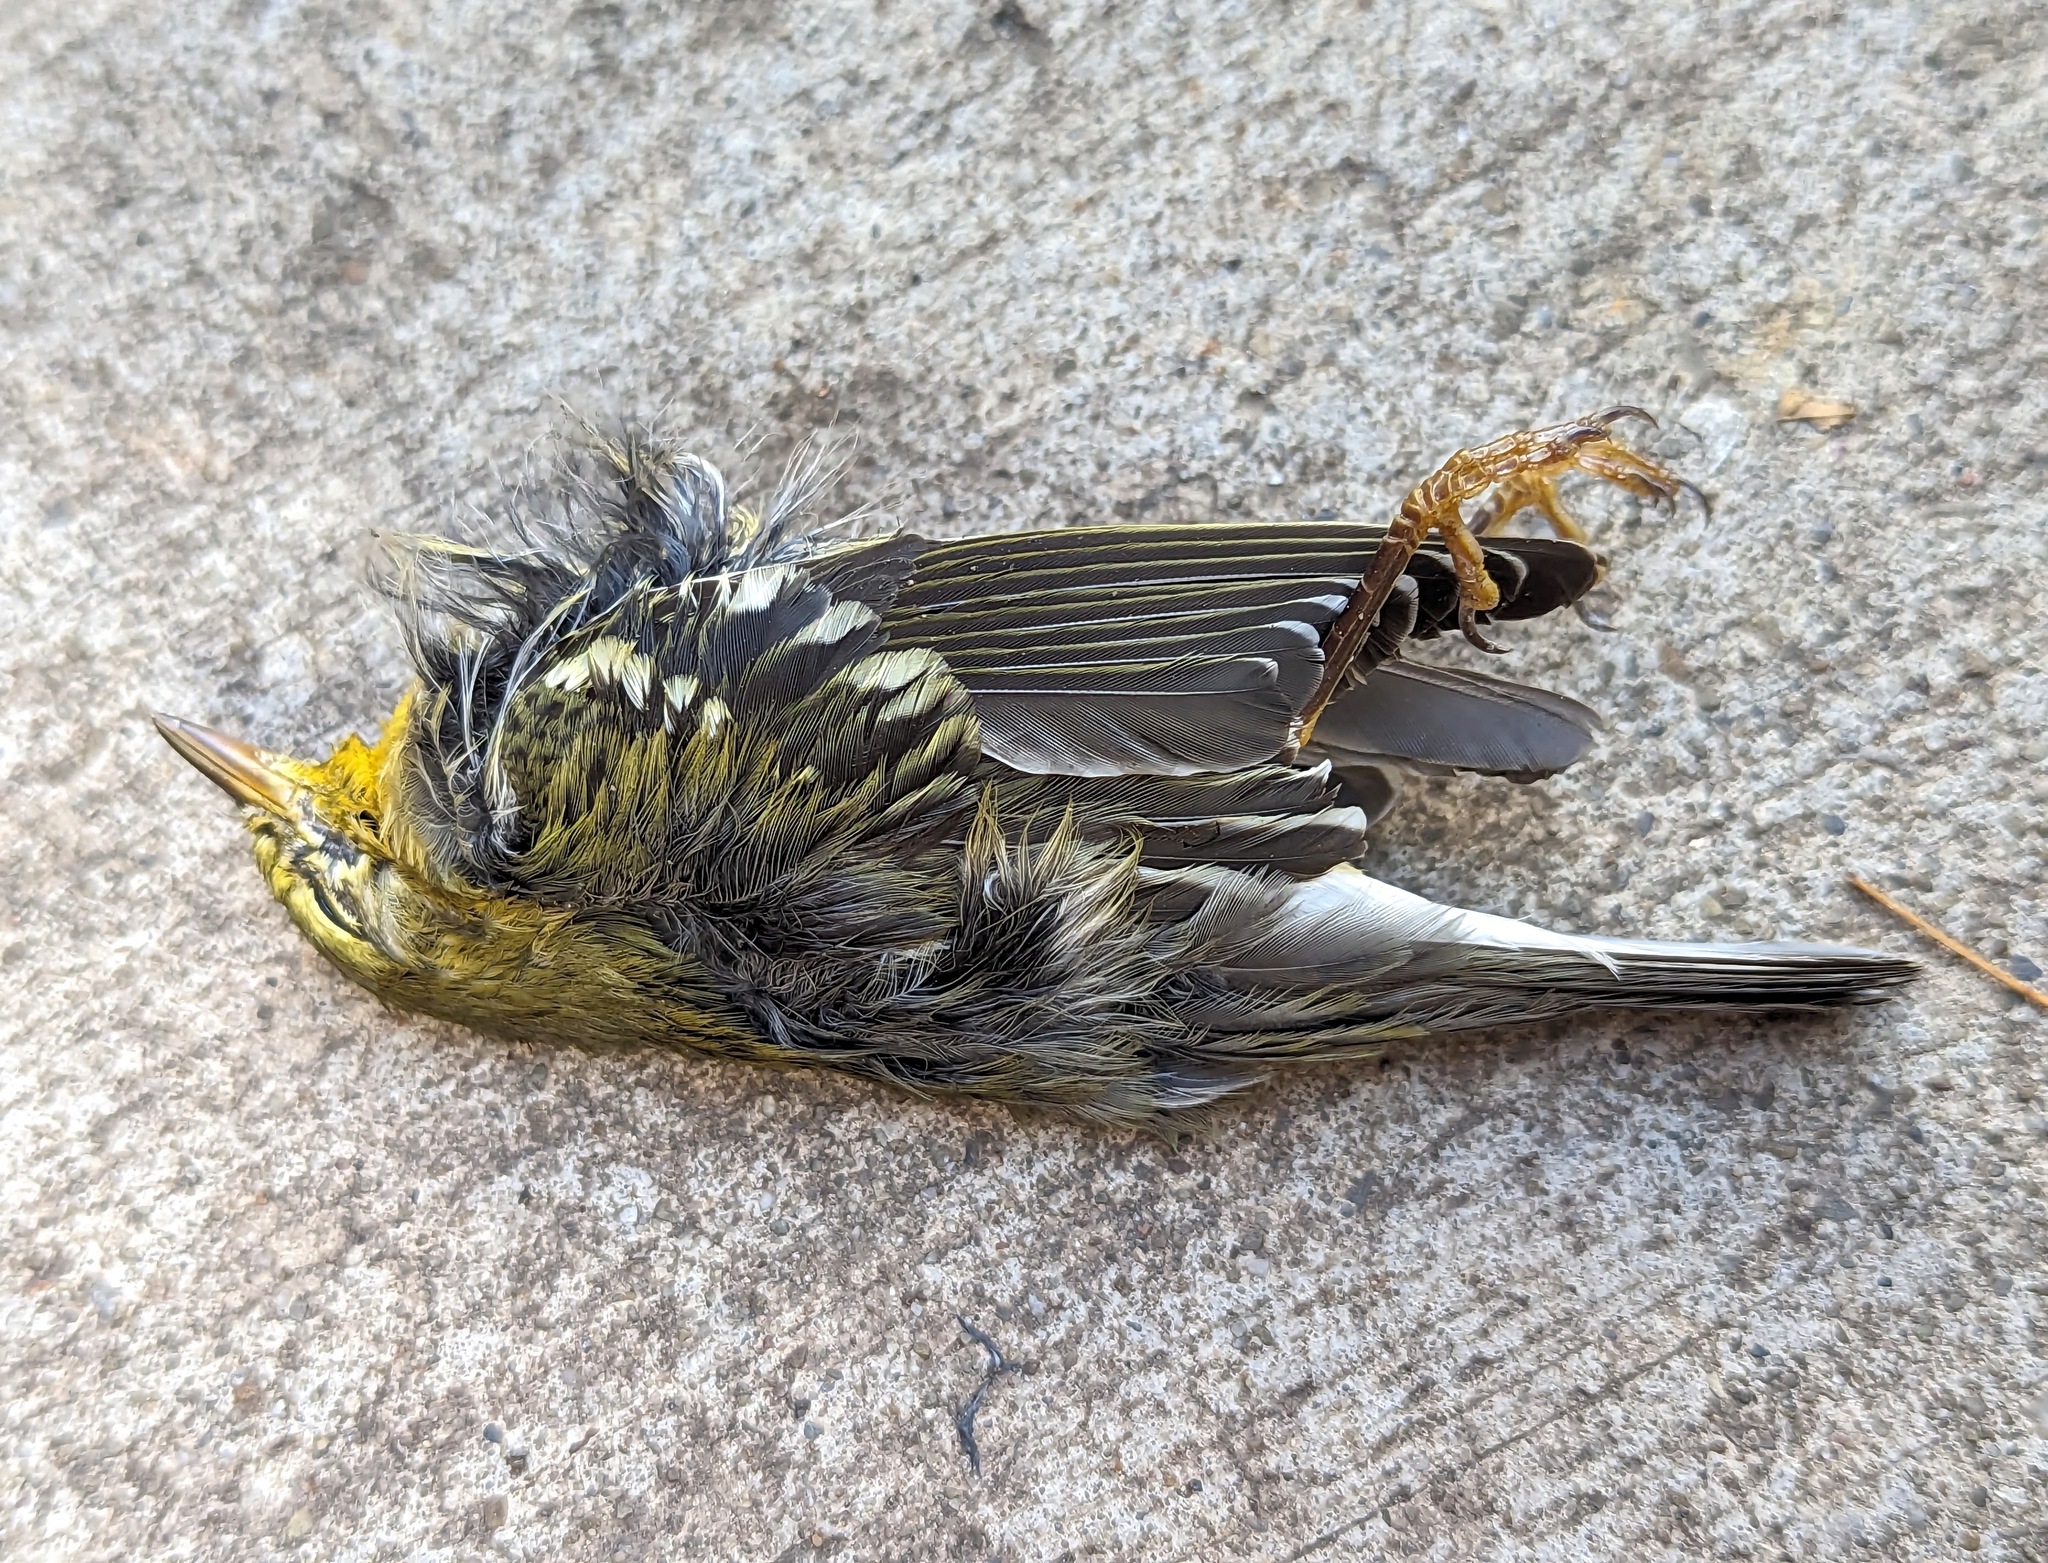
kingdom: Animalia
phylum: Chordata
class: Aves
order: Passeriformes
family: Parulidae
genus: Setophaga
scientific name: Setophaga striata
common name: Blackpoll warbler
